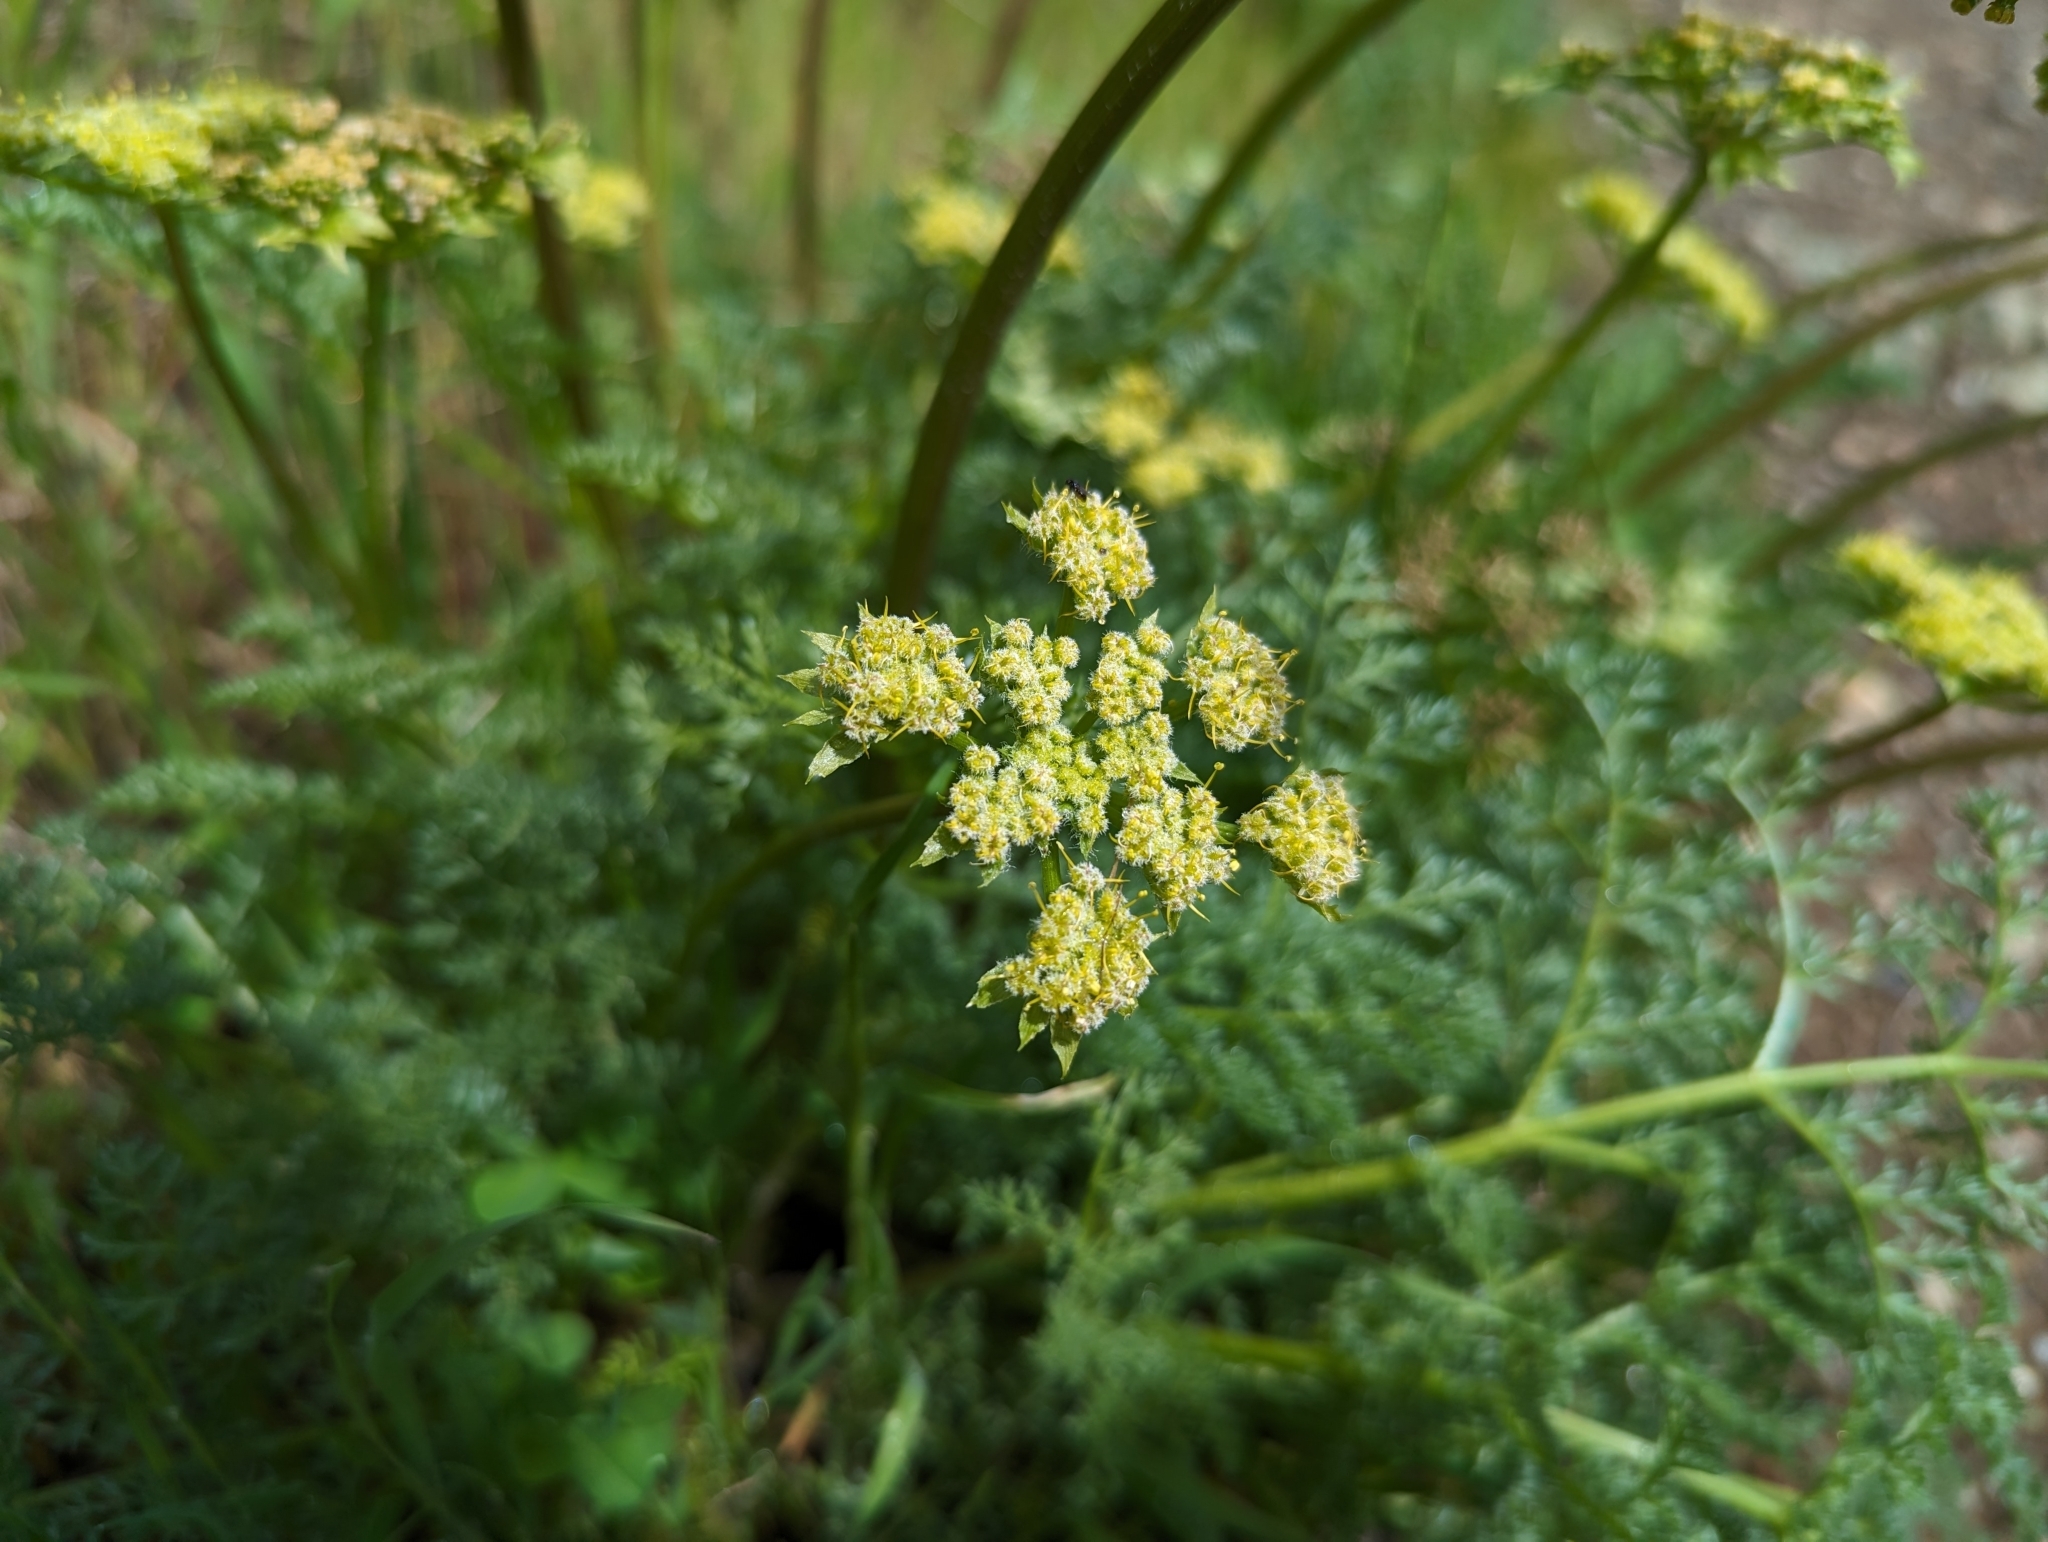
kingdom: Plantae
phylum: Tracheophyta
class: Magnoliopsida
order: Apiales
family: Apiaceae
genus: Lomatium
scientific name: Lomatium dasycarpum
